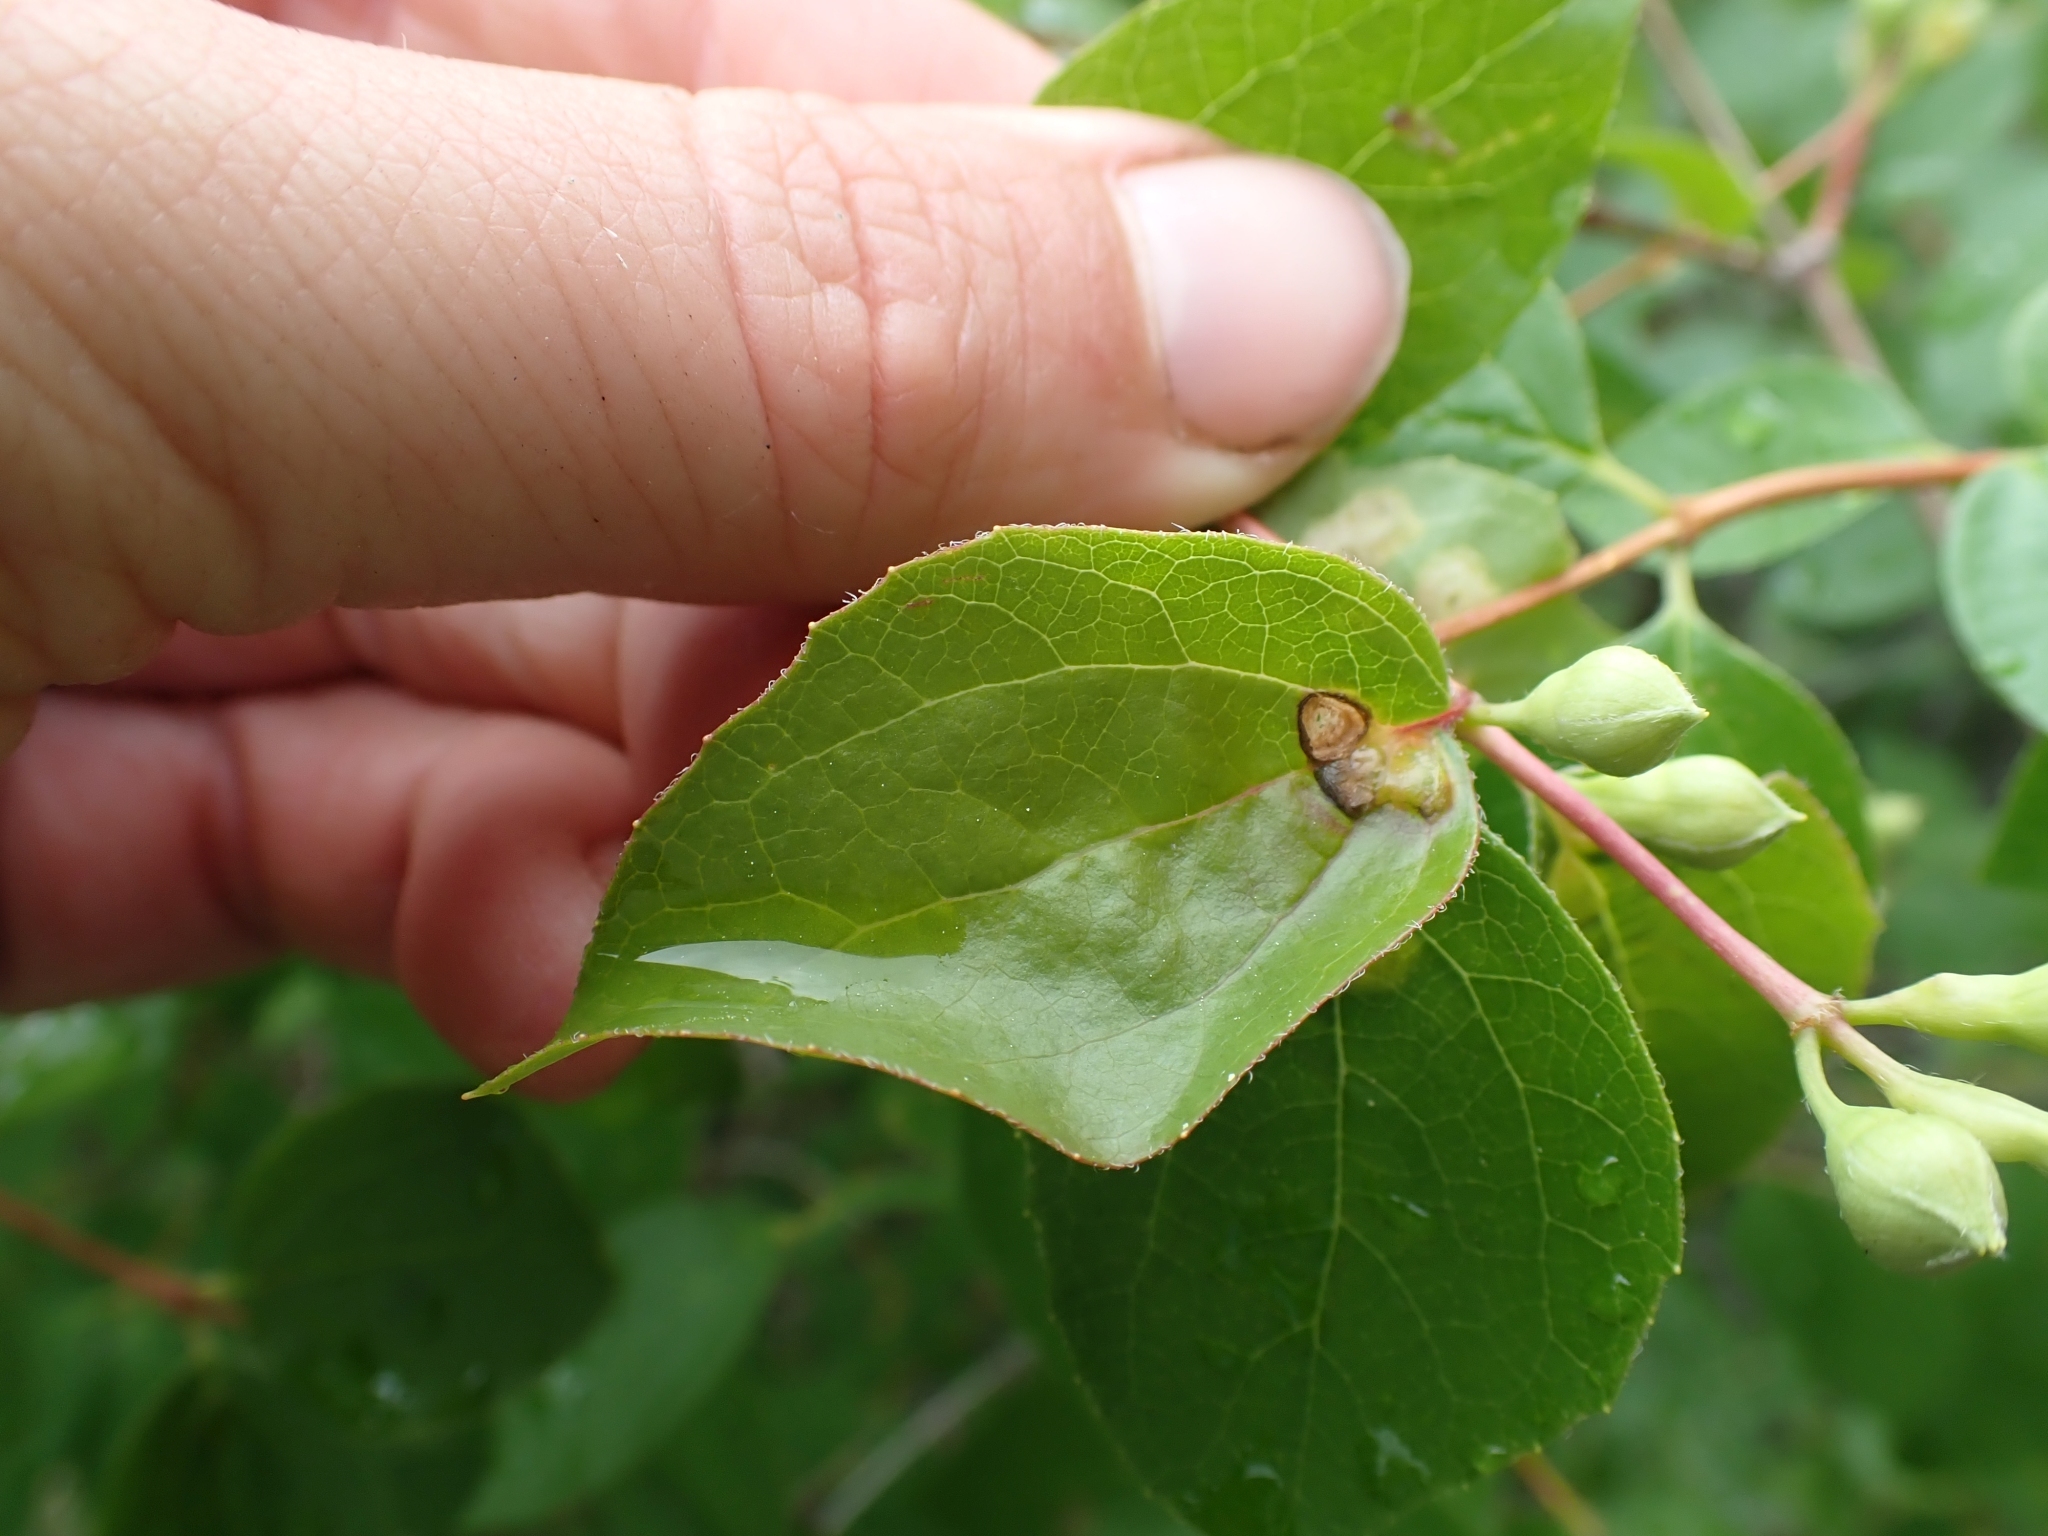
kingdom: Plantae
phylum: Tracheophyta
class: Magnoliopsida
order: Cornales
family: Hydrangeaceae
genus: Philadelphus
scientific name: Philadelphus lewisii
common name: Lewis's mock orange
